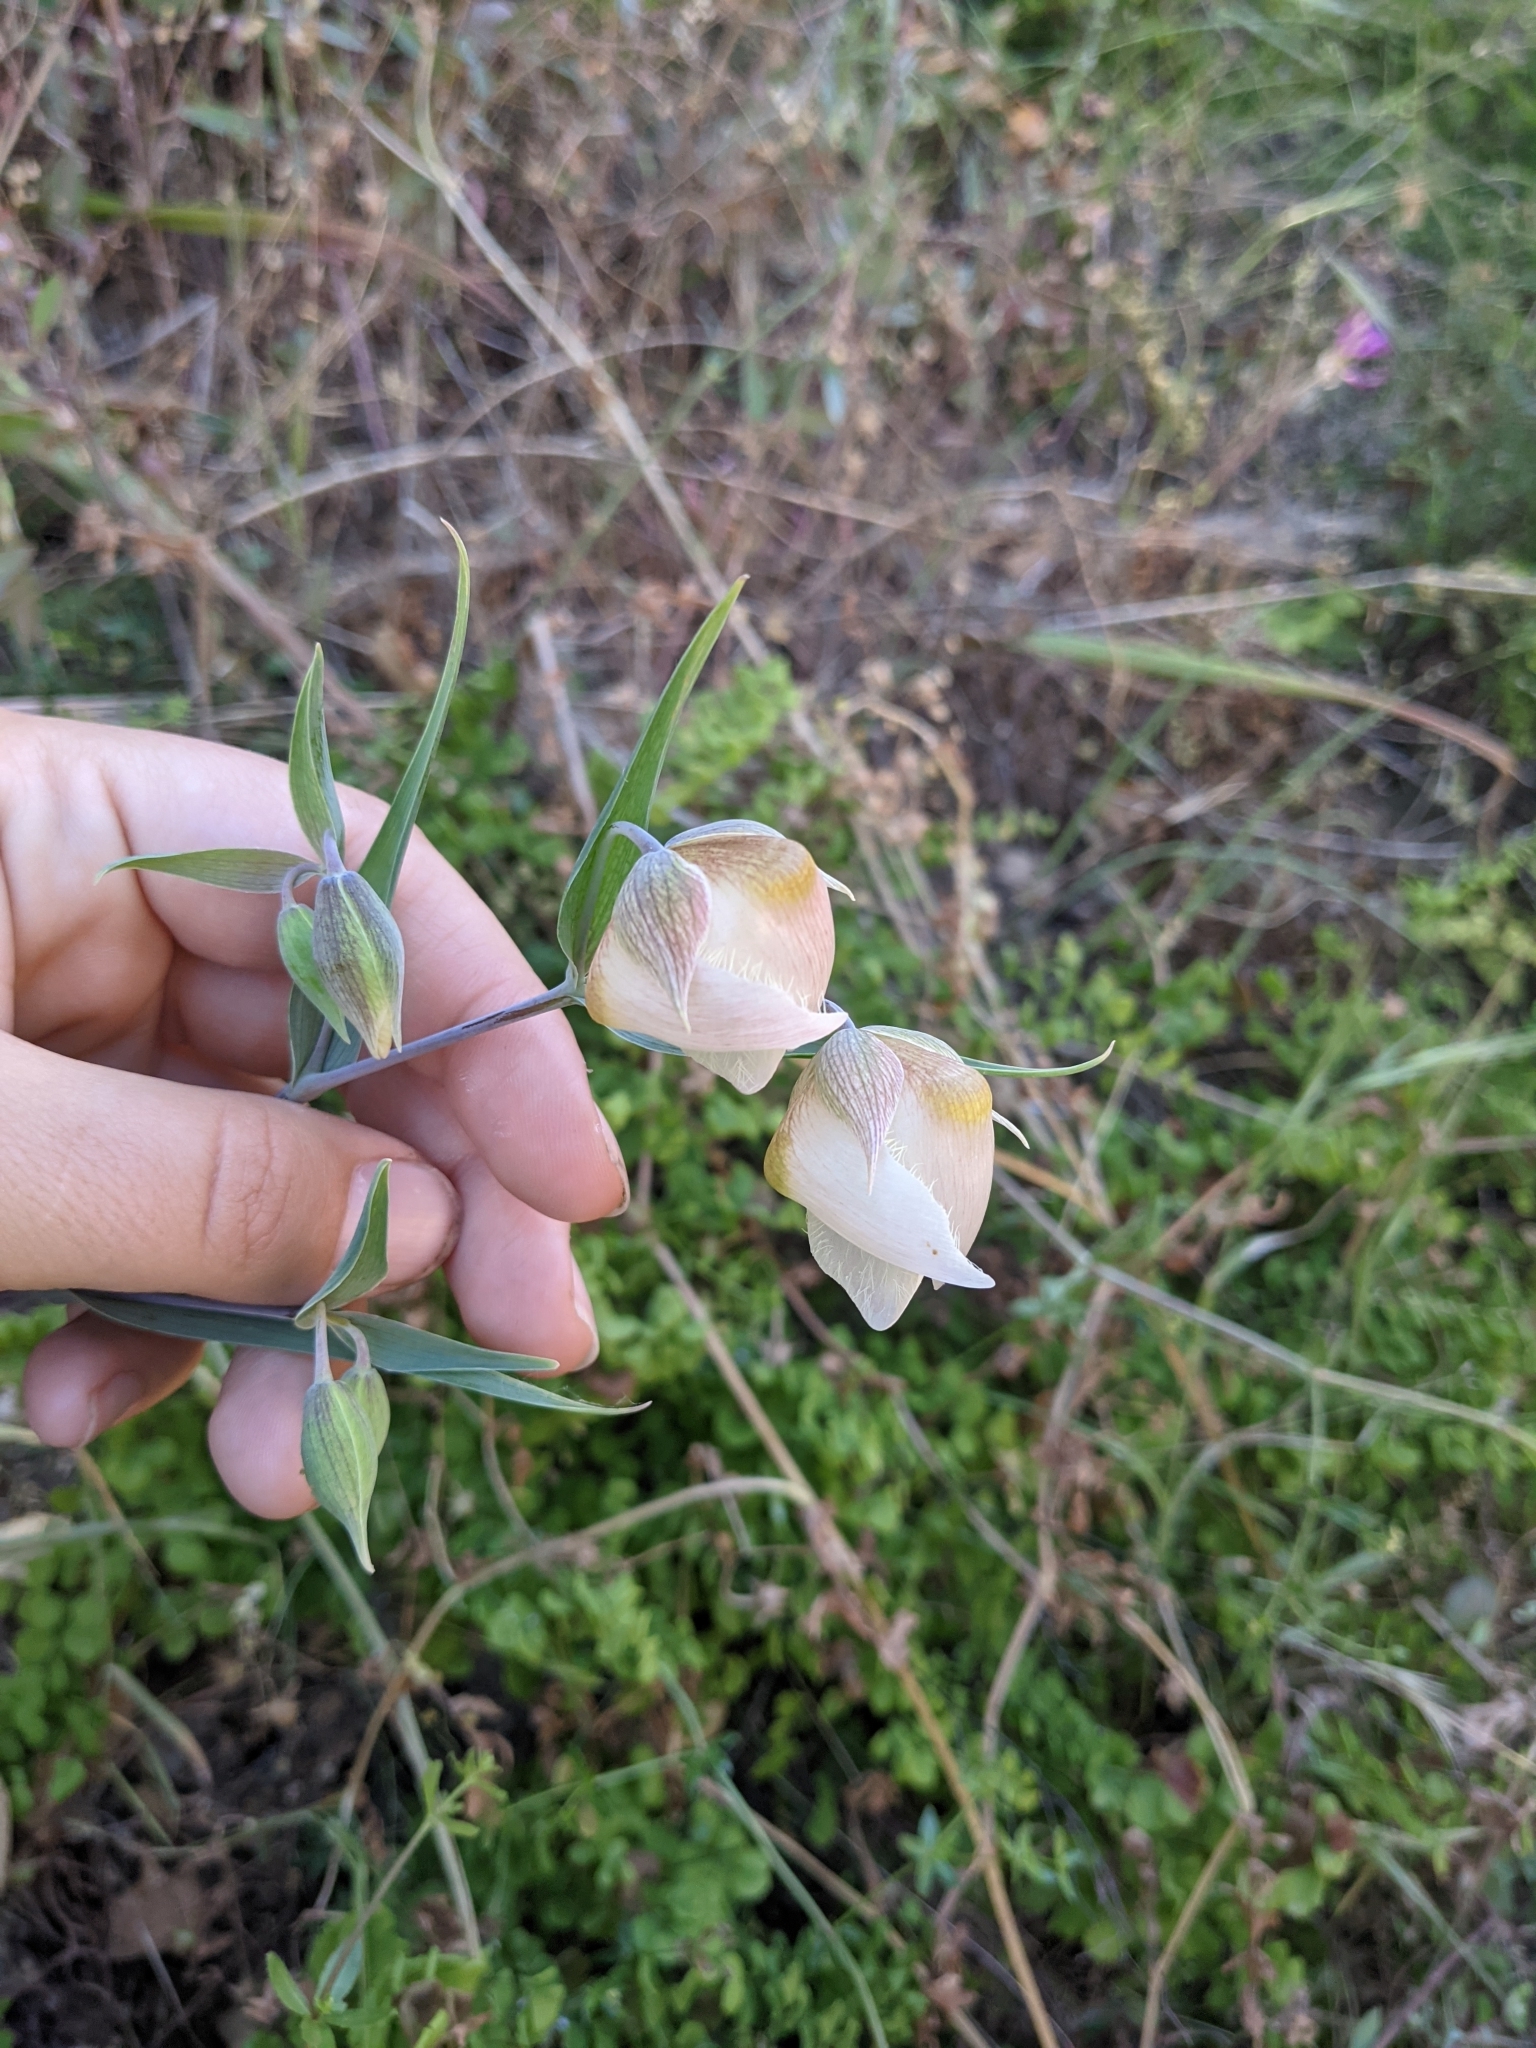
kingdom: Plantae
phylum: Tracheophyta
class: Liliopsida
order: Liliales
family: Liliaceae
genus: Calochortus
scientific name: Calochortus albus
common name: Fairy-lantern
